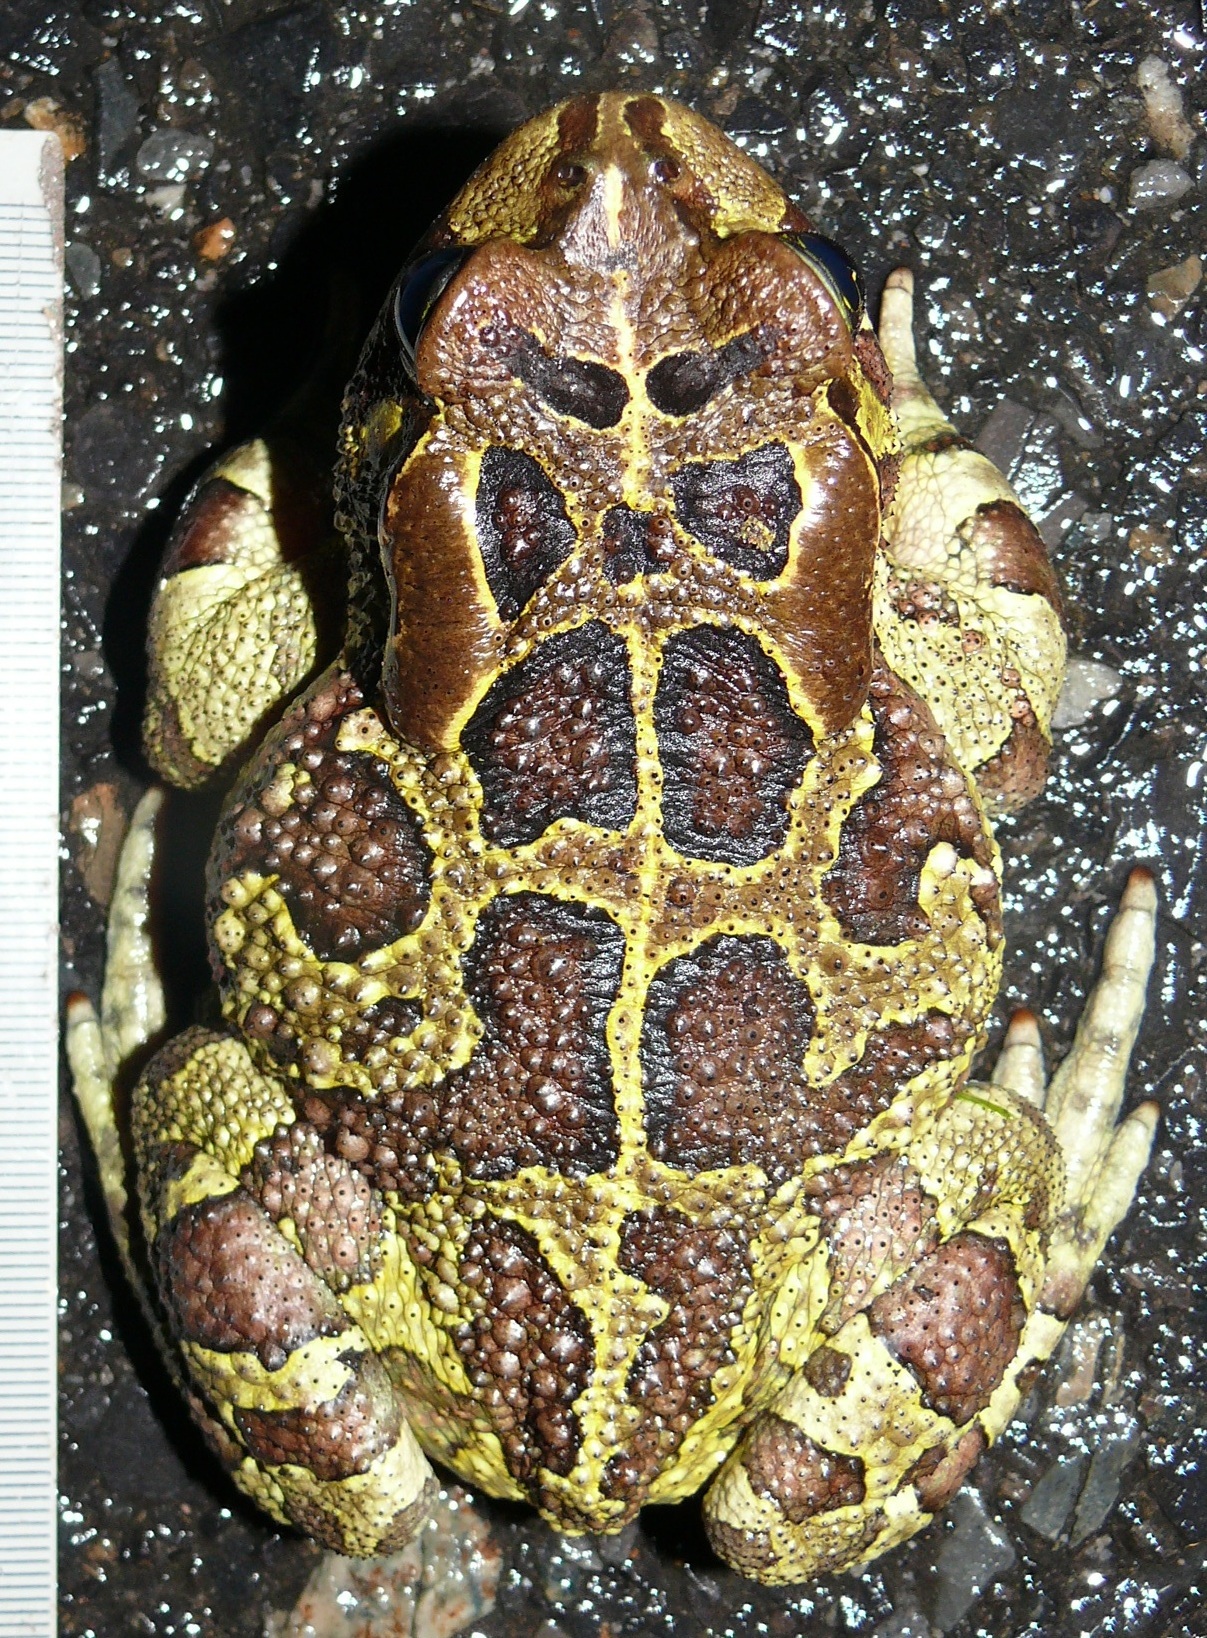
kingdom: Animalia
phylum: Chordata
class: Amphibia
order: Anura
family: Bufonidae
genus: Sclerophrys
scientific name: Sclerophrys pantherina
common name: Panther toad
